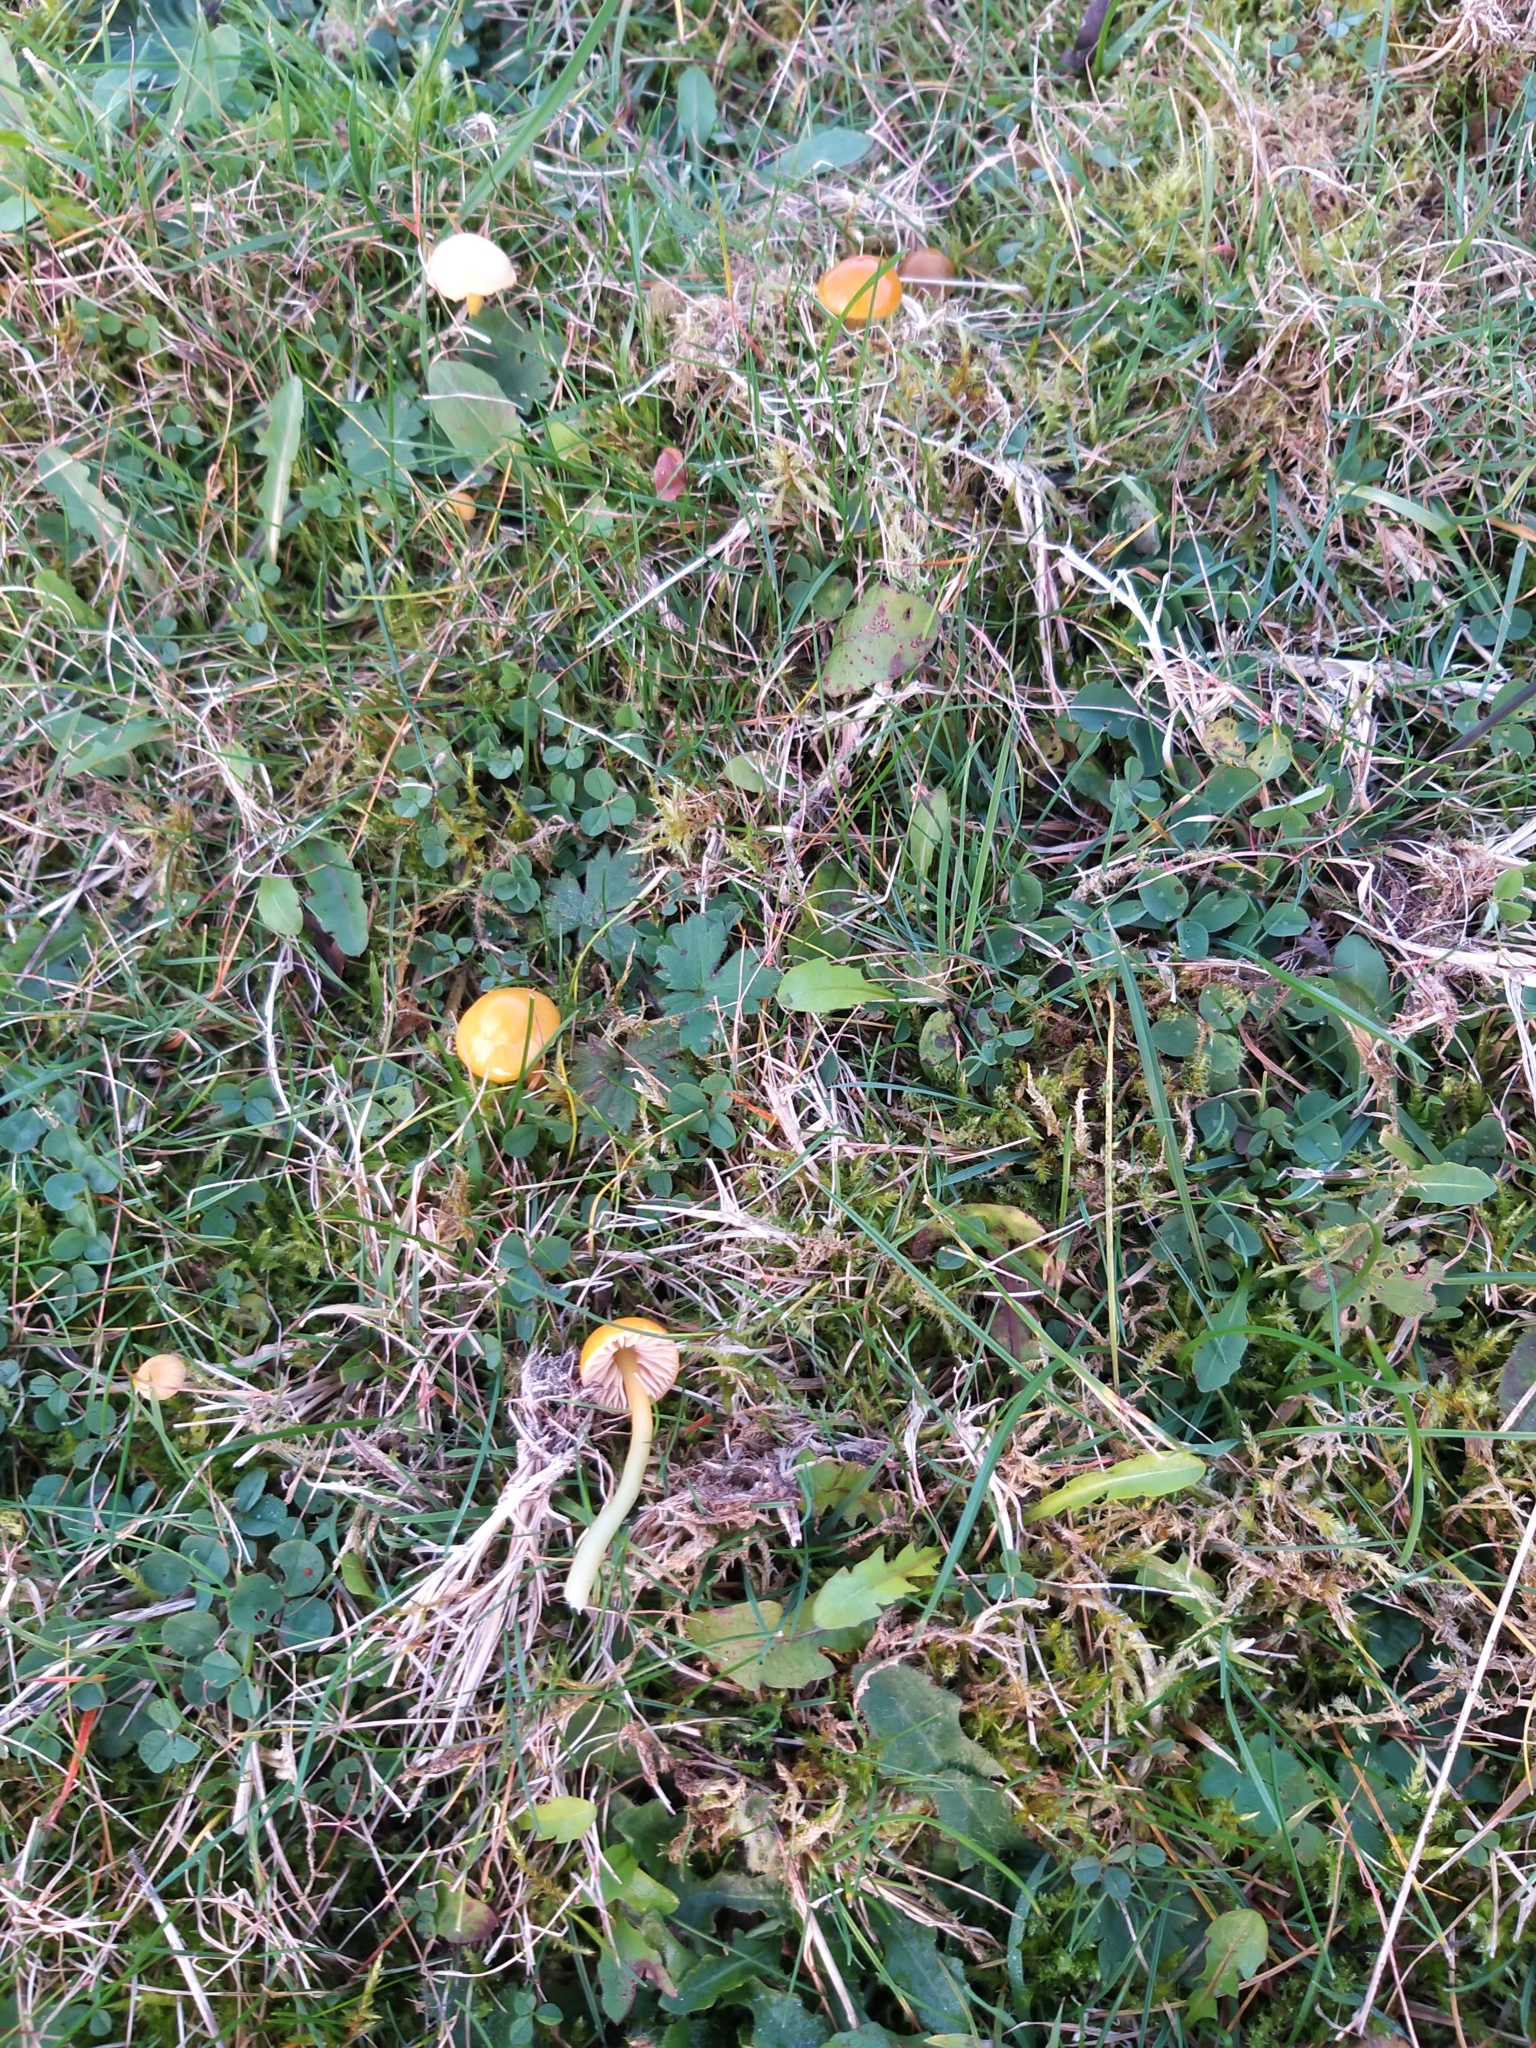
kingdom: Fungi
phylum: Basidiomycota
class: Agaricomycetes
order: Agaricales
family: Hygrophoraceae
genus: Gliophorus
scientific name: Gliophorus psittacinus
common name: Parrot wax-cap
